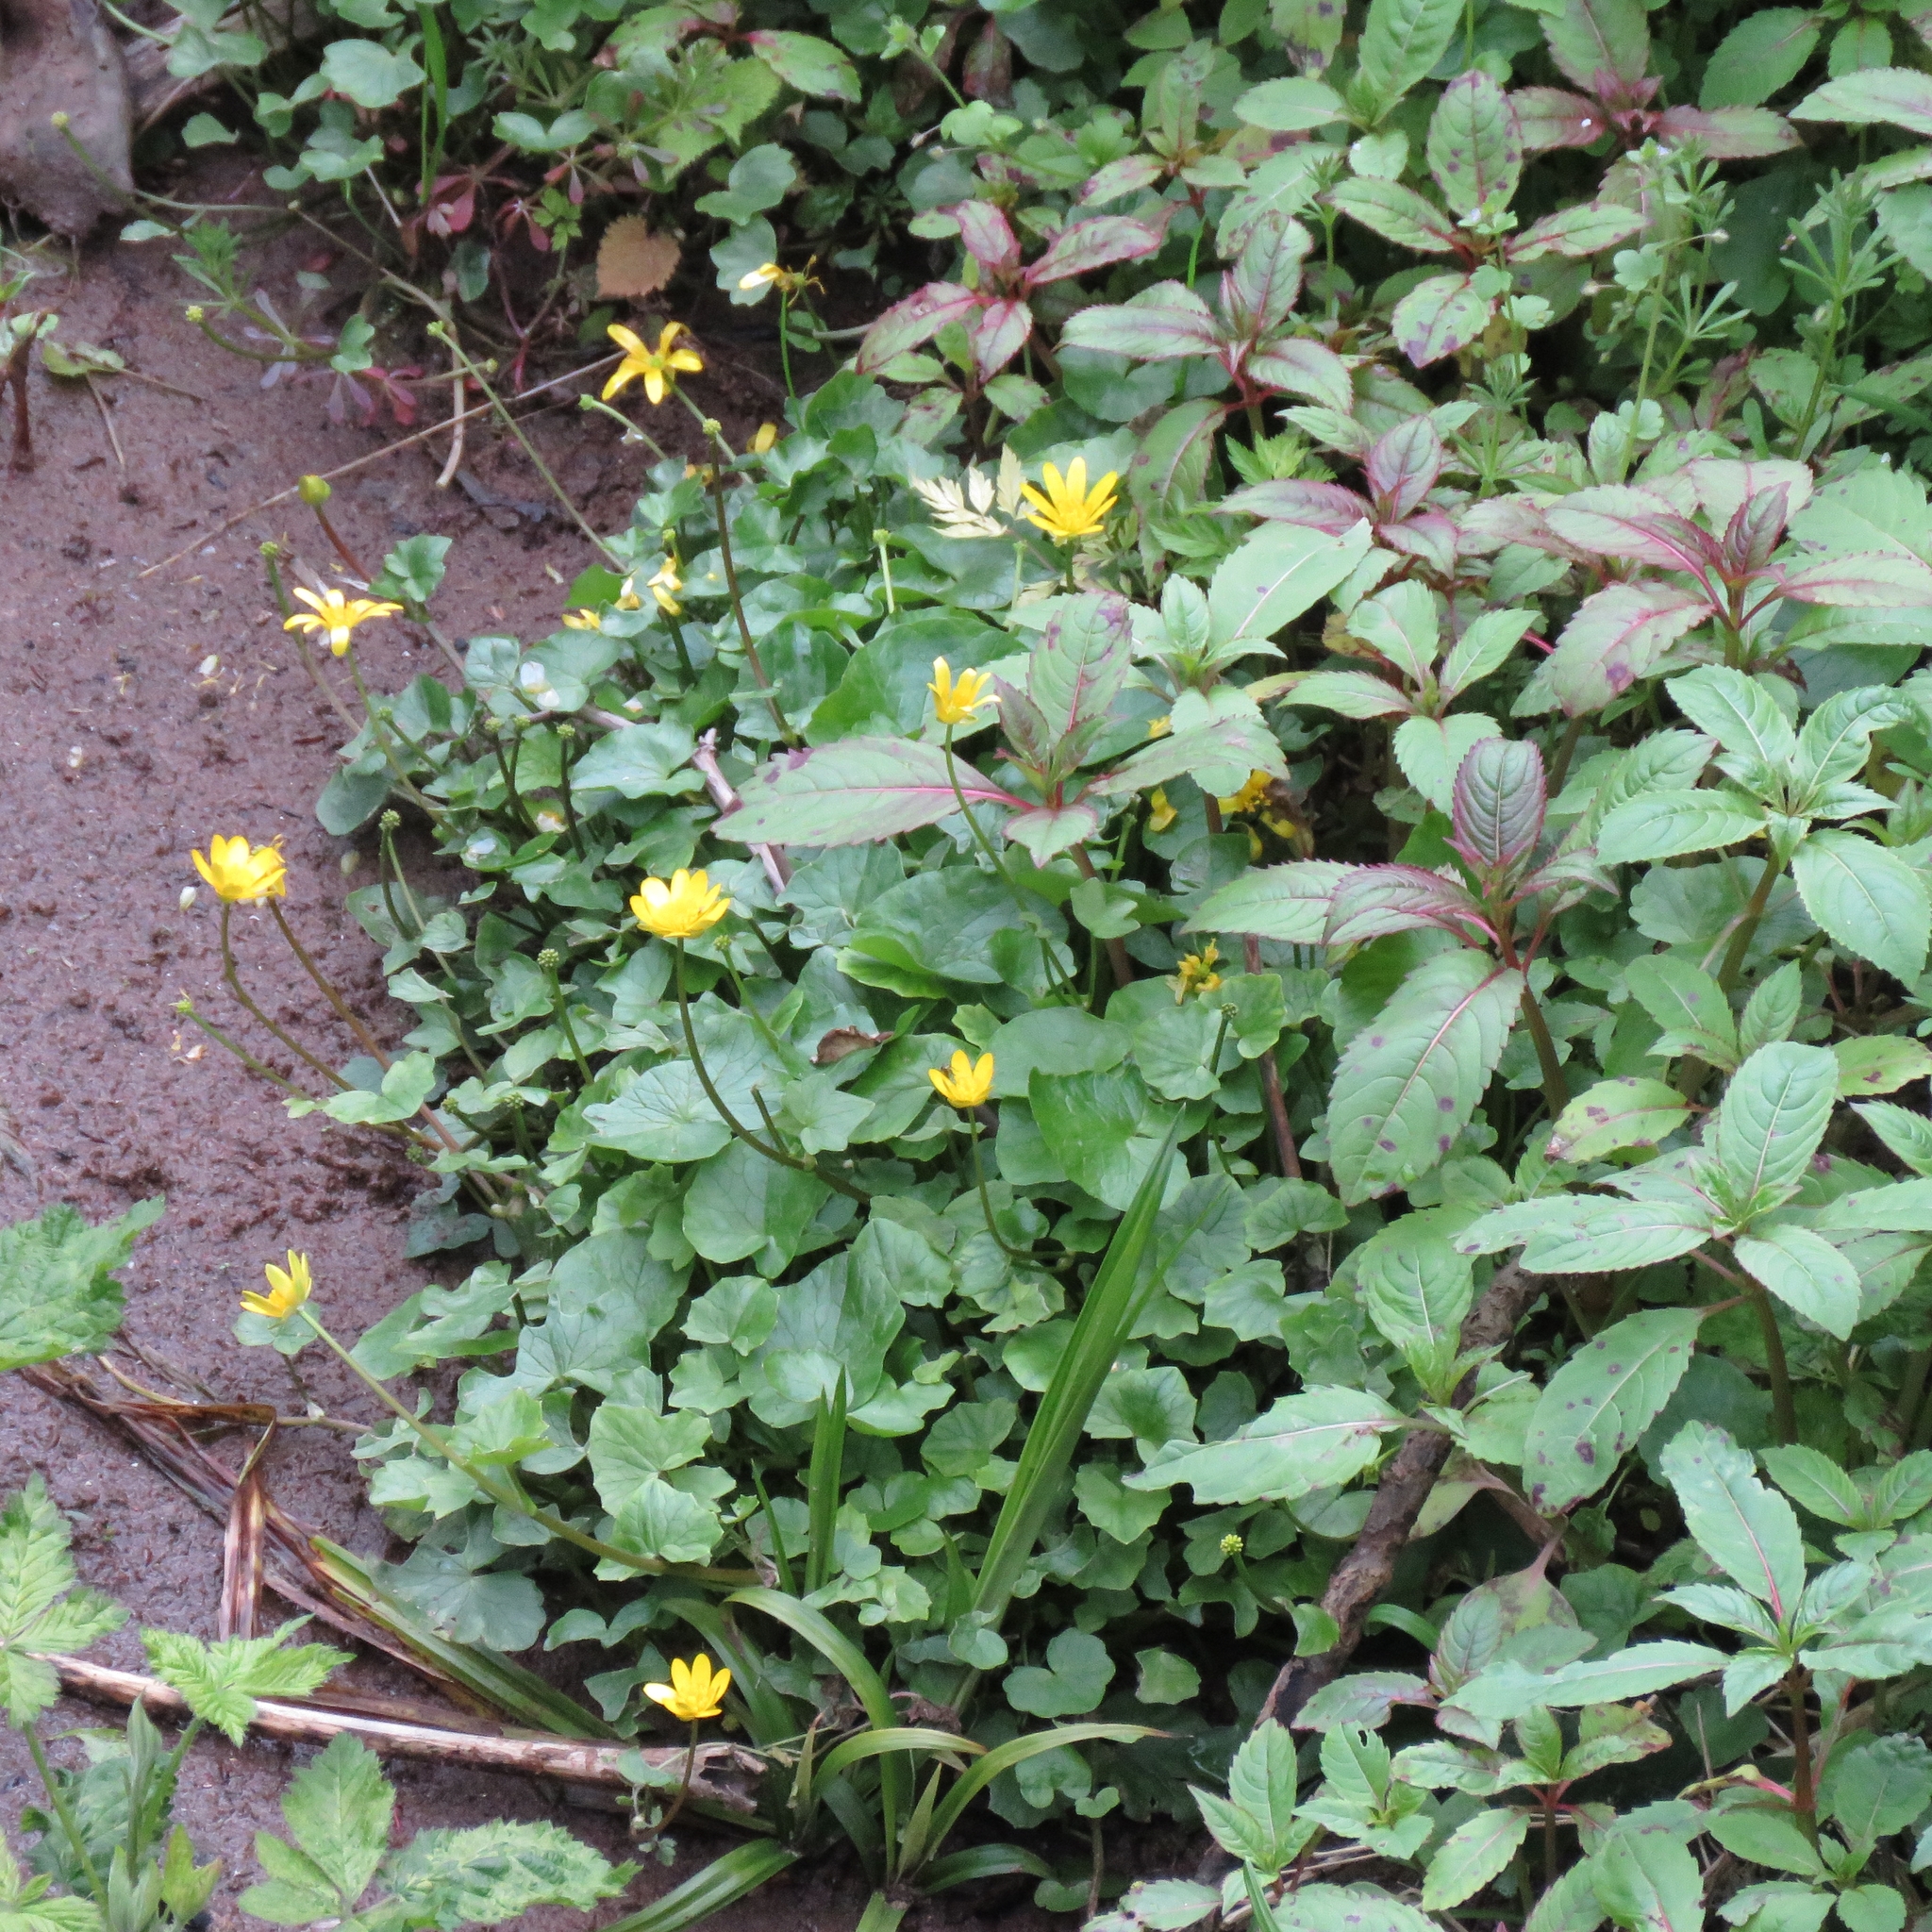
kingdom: Plantae
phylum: Tracheophyta
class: Magnoliopsida
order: Ranunculales
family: Ranunculaceae
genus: Ficaria
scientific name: Ficaria verna
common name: Lesser celandine
